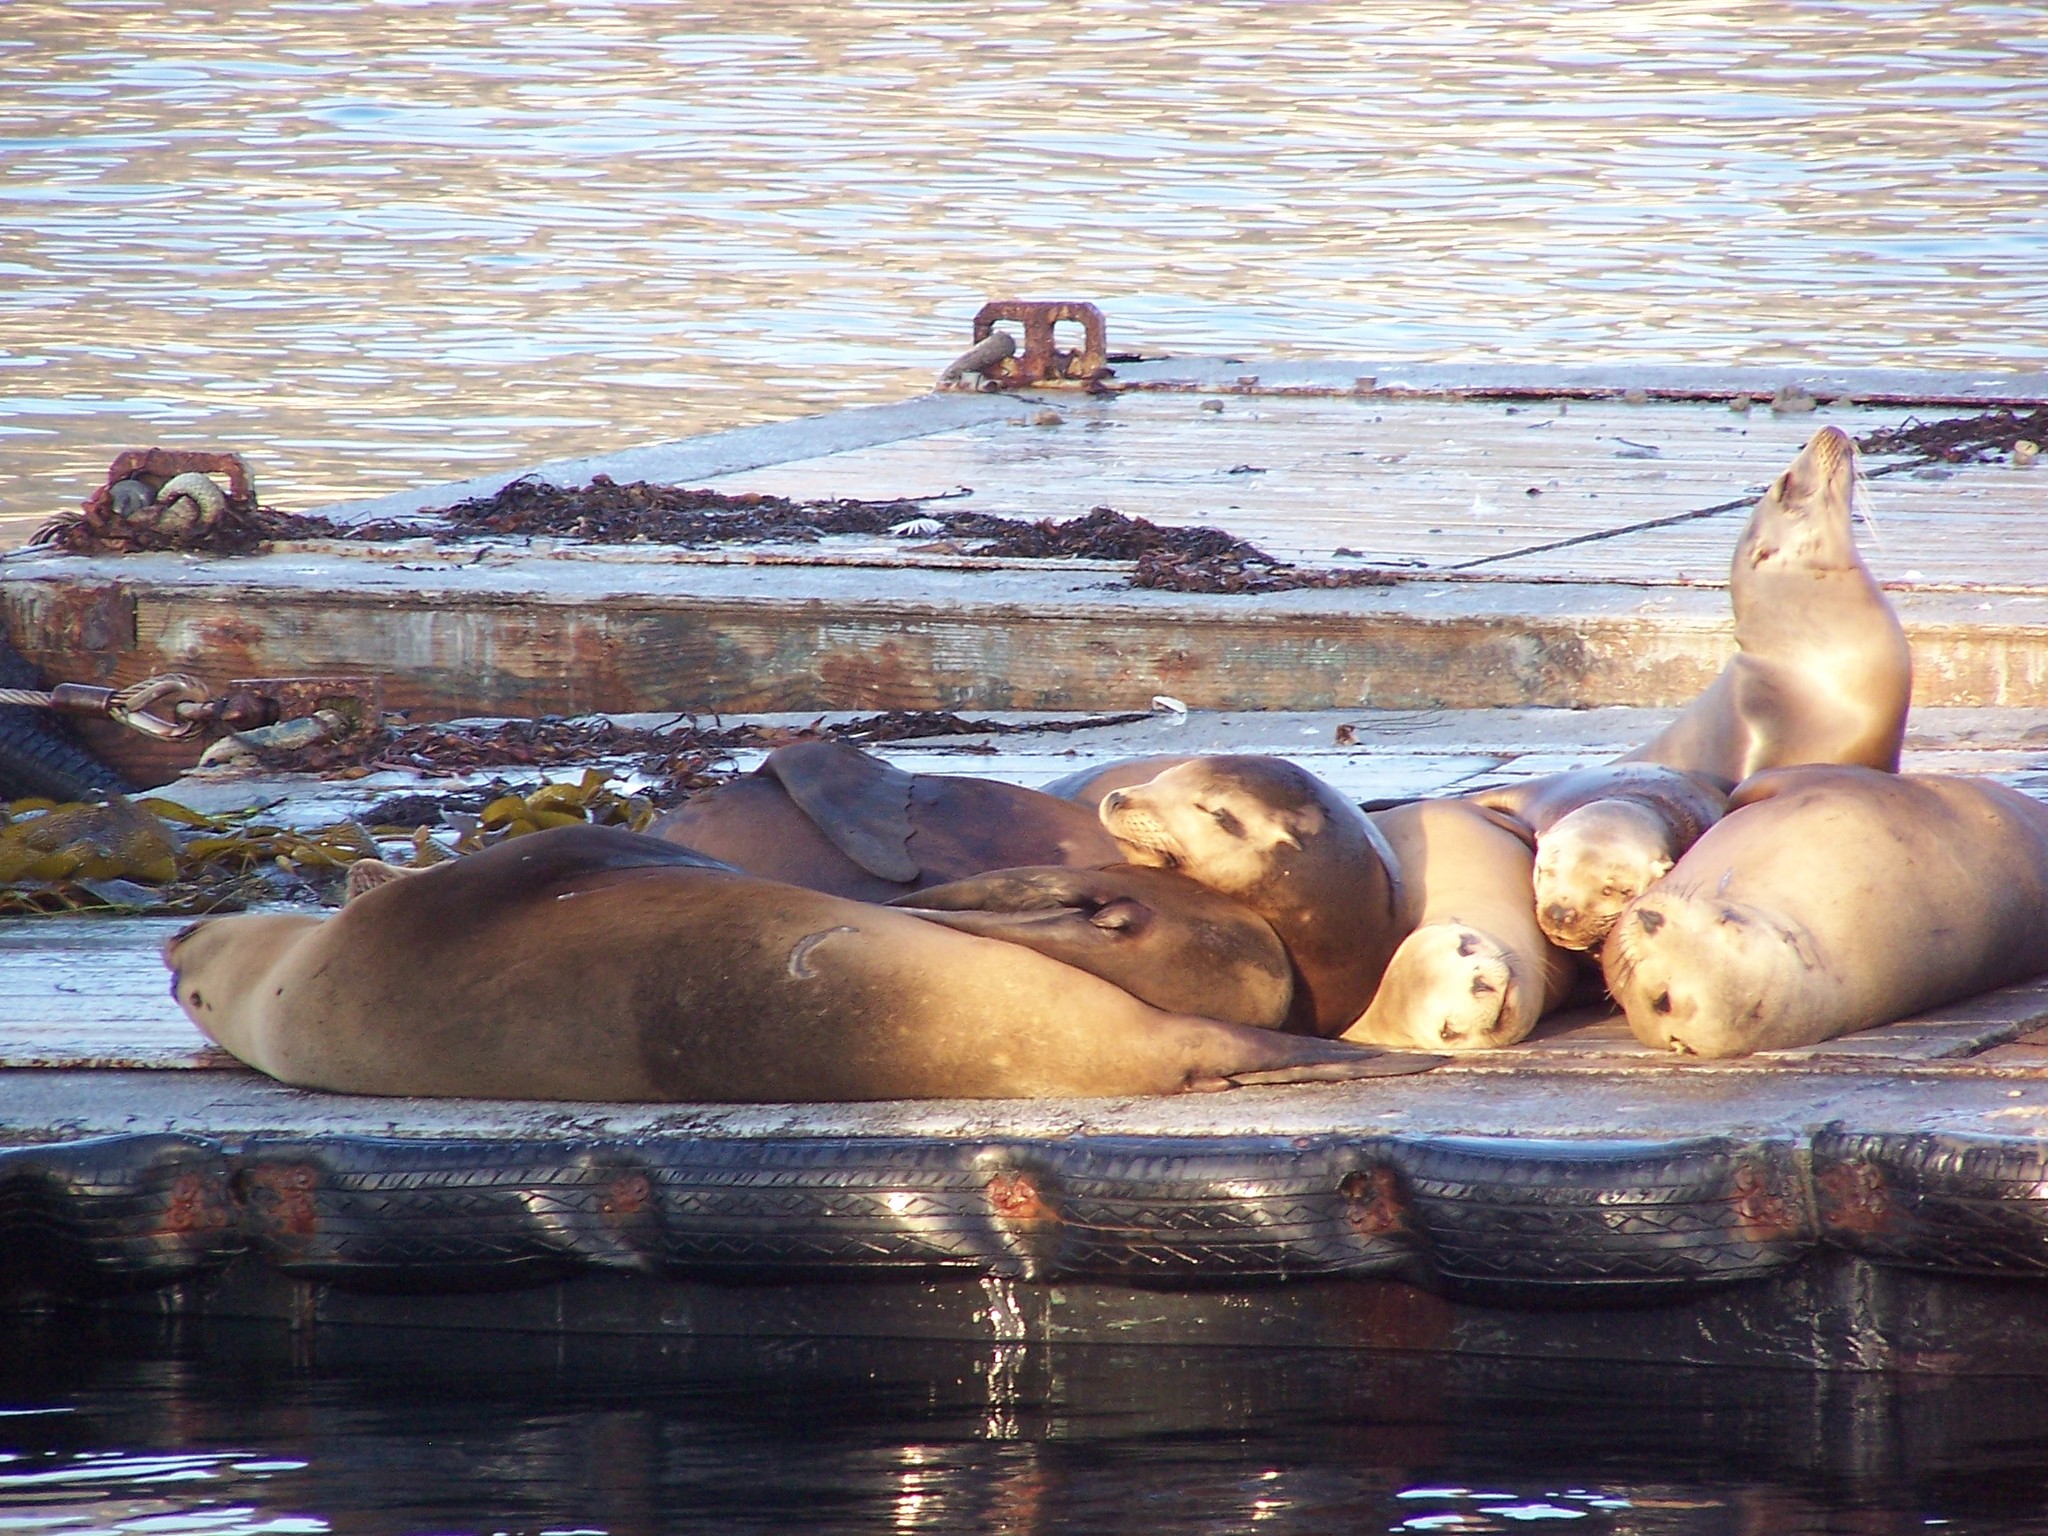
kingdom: Animalia
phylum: Chordata
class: Mammalia
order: Carnivora
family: Otariidae
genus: Zalophus
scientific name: Zalophus californianus
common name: California sea lion
